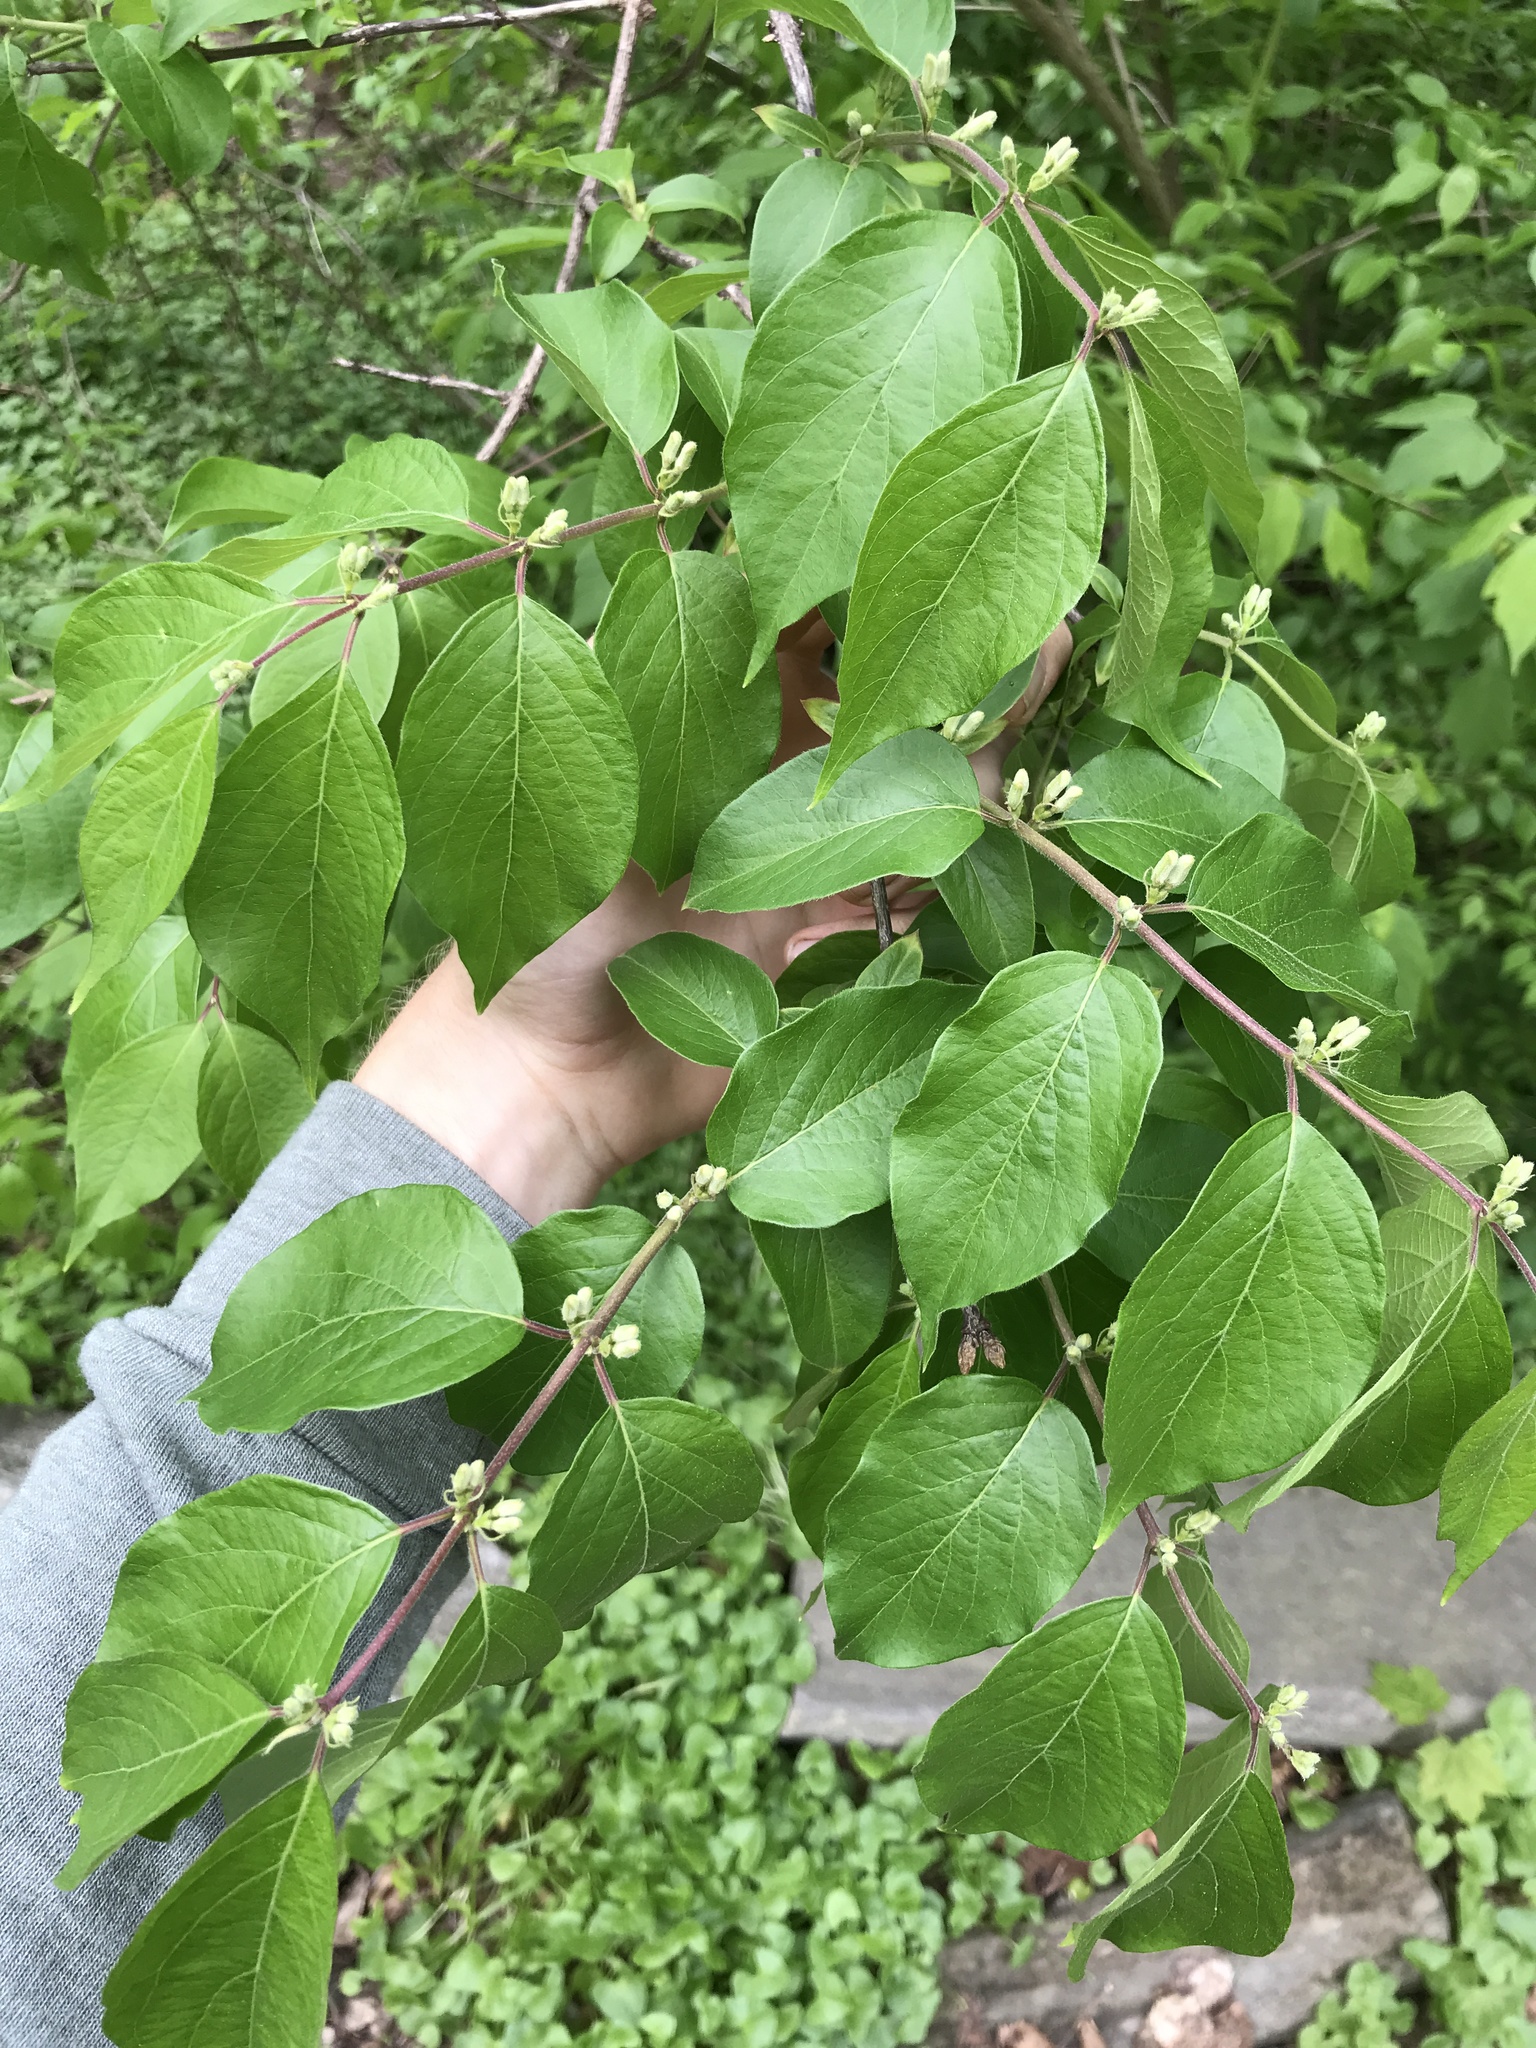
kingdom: Plantae
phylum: Tracheophyta
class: Magnoliopsida
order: Dipsacales
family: Caprifoliaceae
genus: Lonicera
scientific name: Lonicera maackii
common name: Amur honeysuckle
